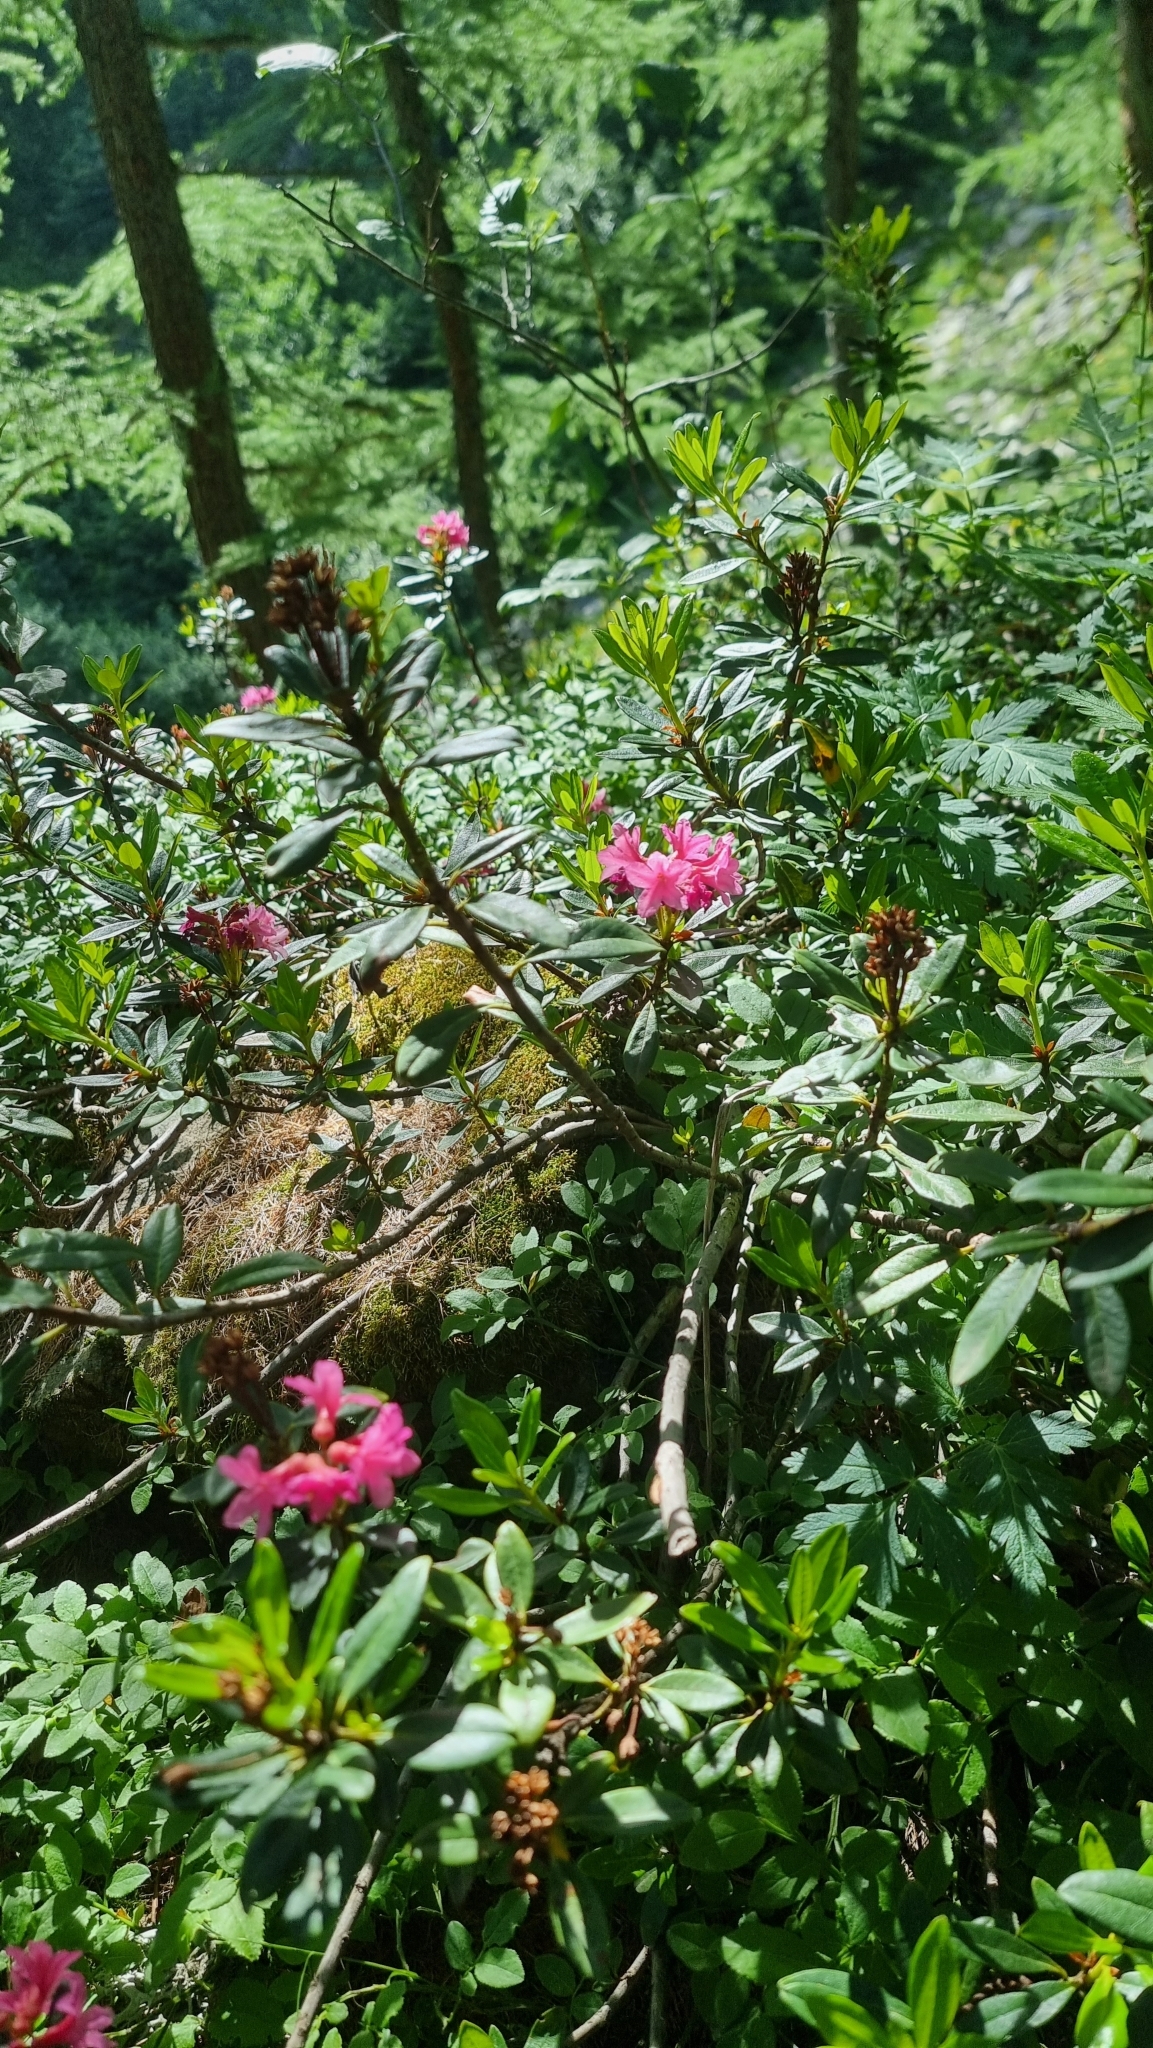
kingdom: Plantae
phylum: Tracheophyta
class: Magnoliopsida
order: Ericales
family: Ericaceae
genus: Rhododendron
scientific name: Rhododendron ferrugineum
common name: Alpenrose
